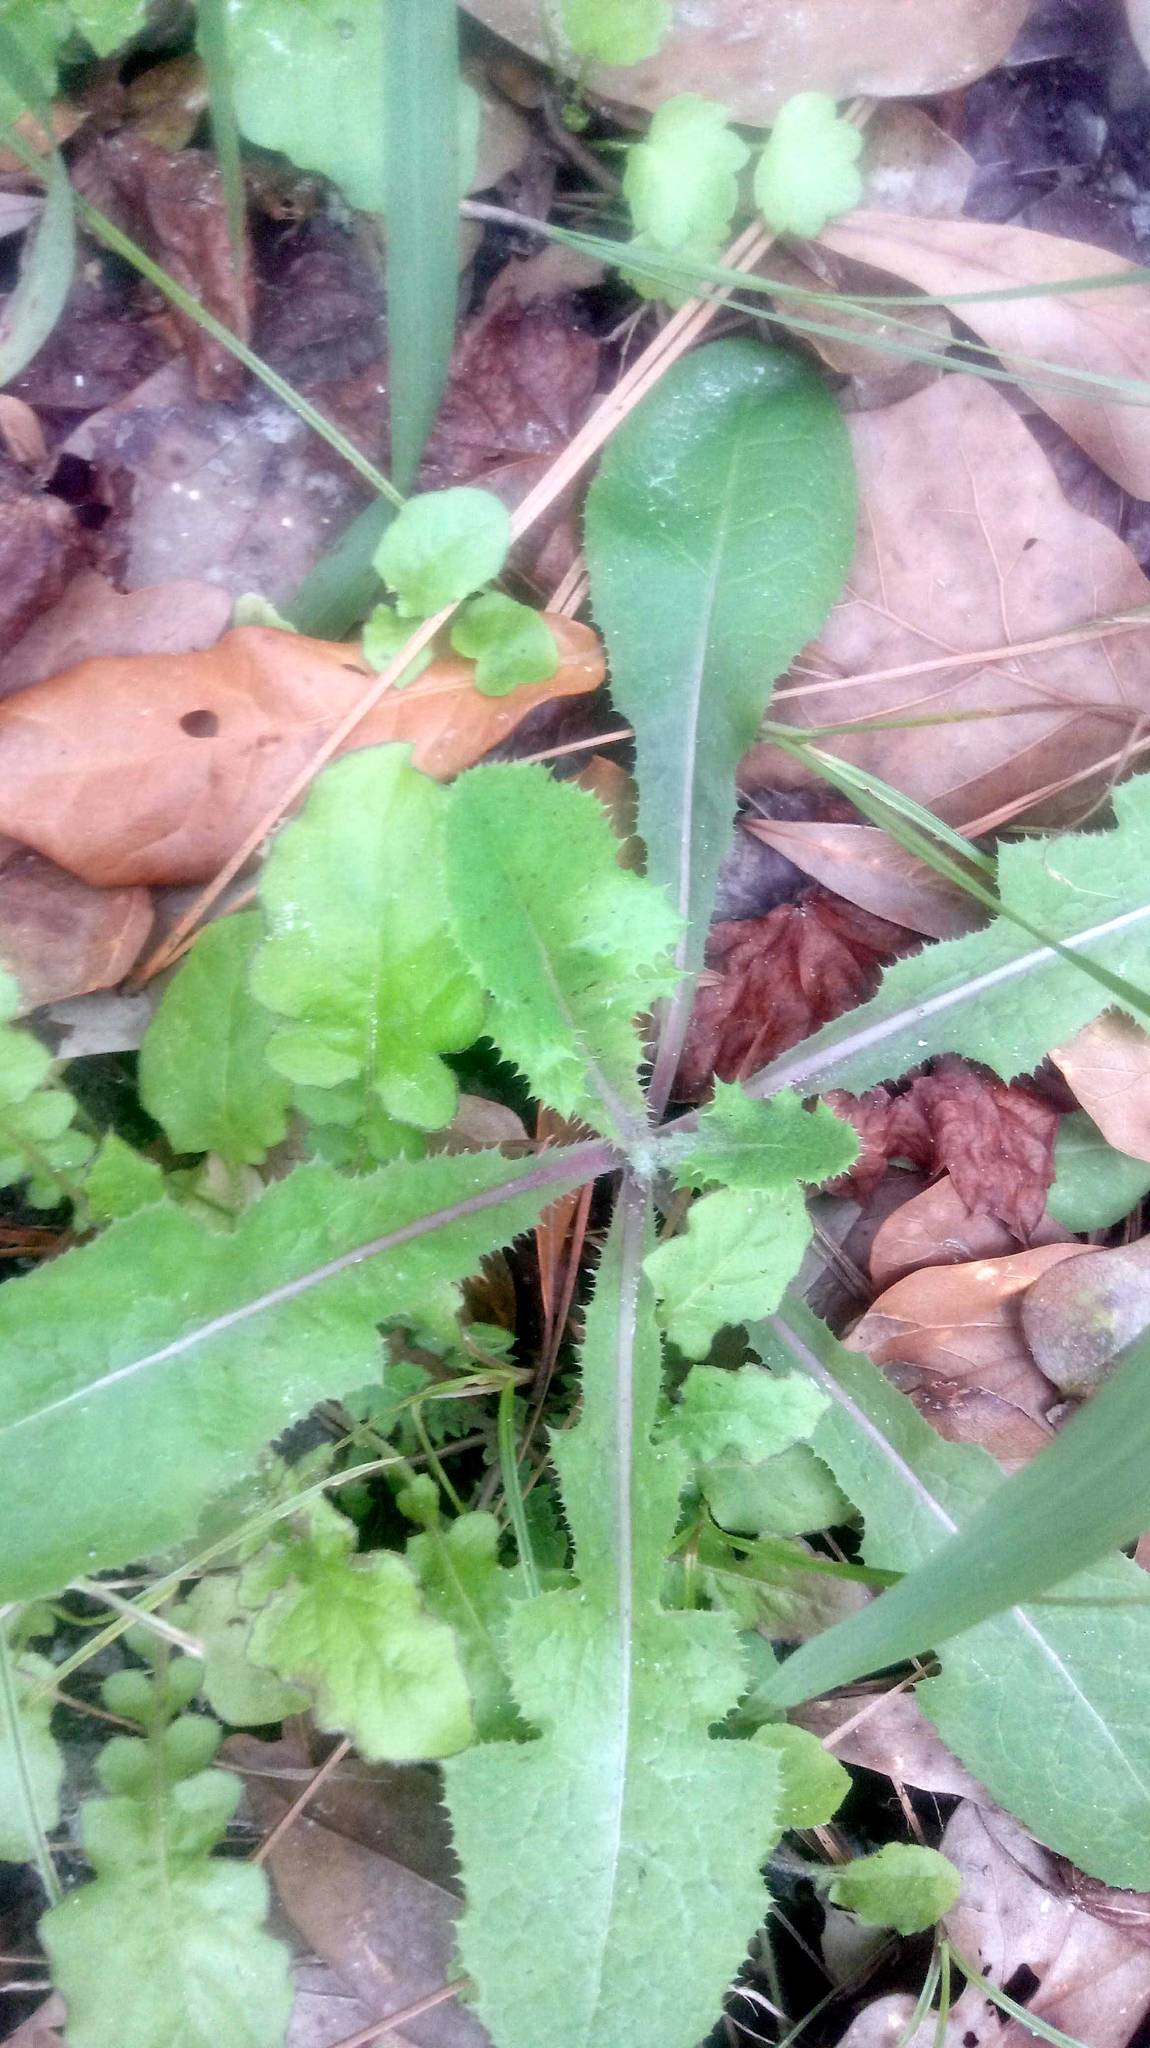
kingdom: Plantae
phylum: Tracheophyta
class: Magnoliopsida
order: Asterales
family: Asteraceae
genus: Sonchus
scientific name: Sonchus oleraceus
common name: Common sowthistle
